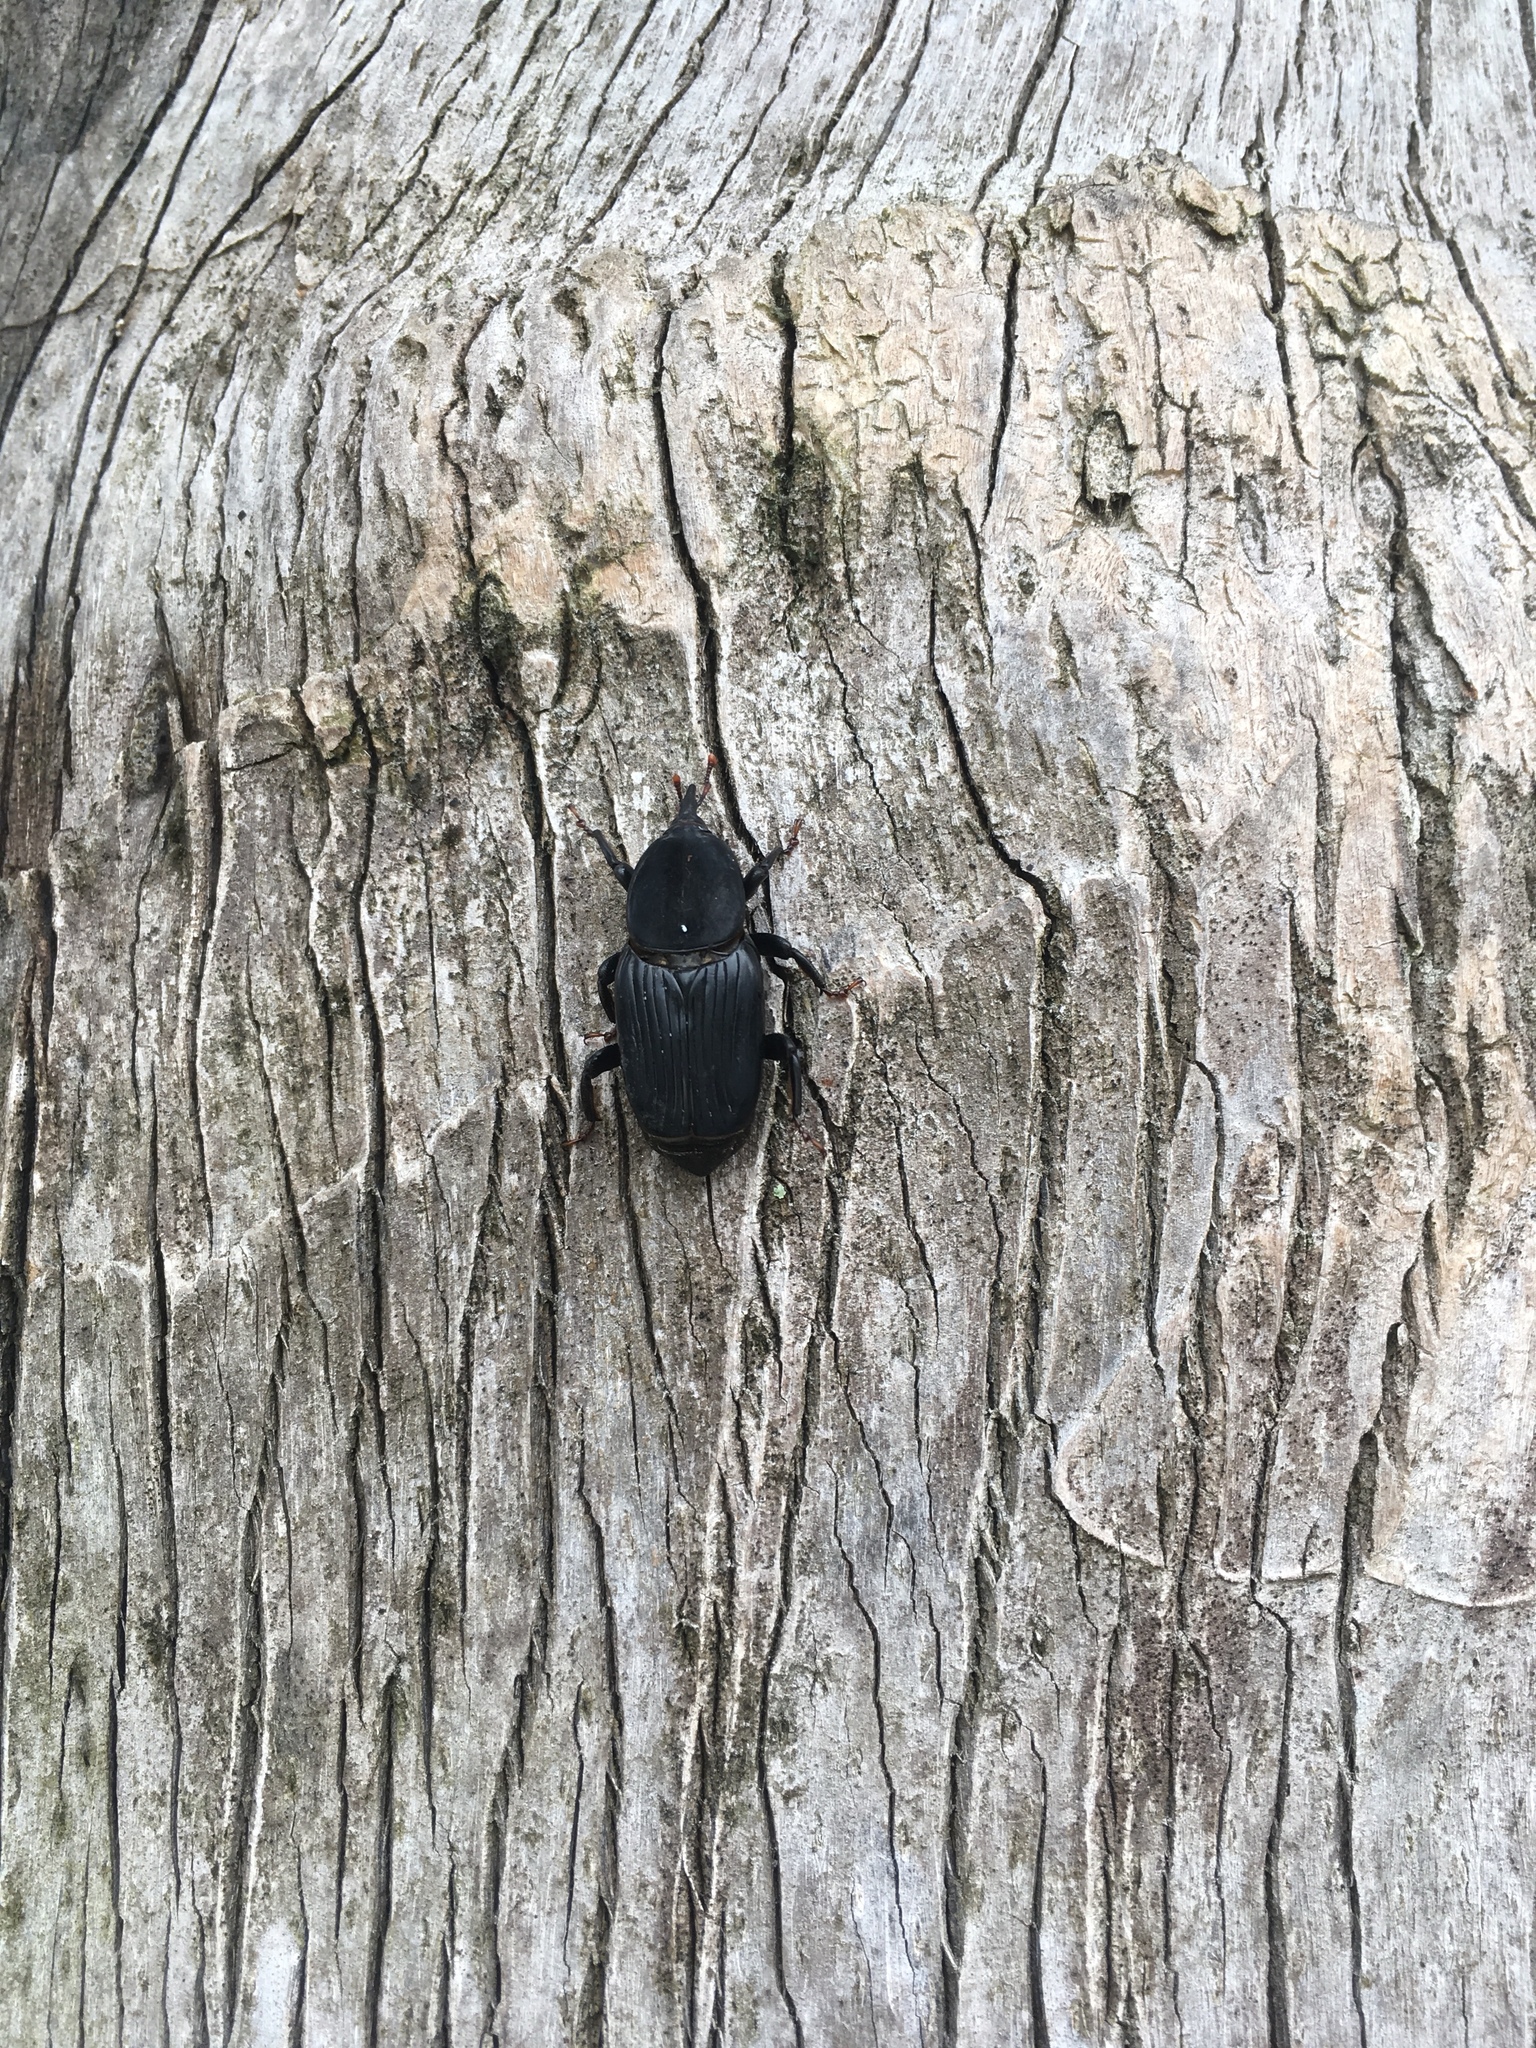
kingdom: Animalia
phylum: Arthropoda
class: Insecta
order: Coleoptera
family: Dryophthoridae
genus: Rhynchophorus
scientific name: Rhynchophorus cruentatus
